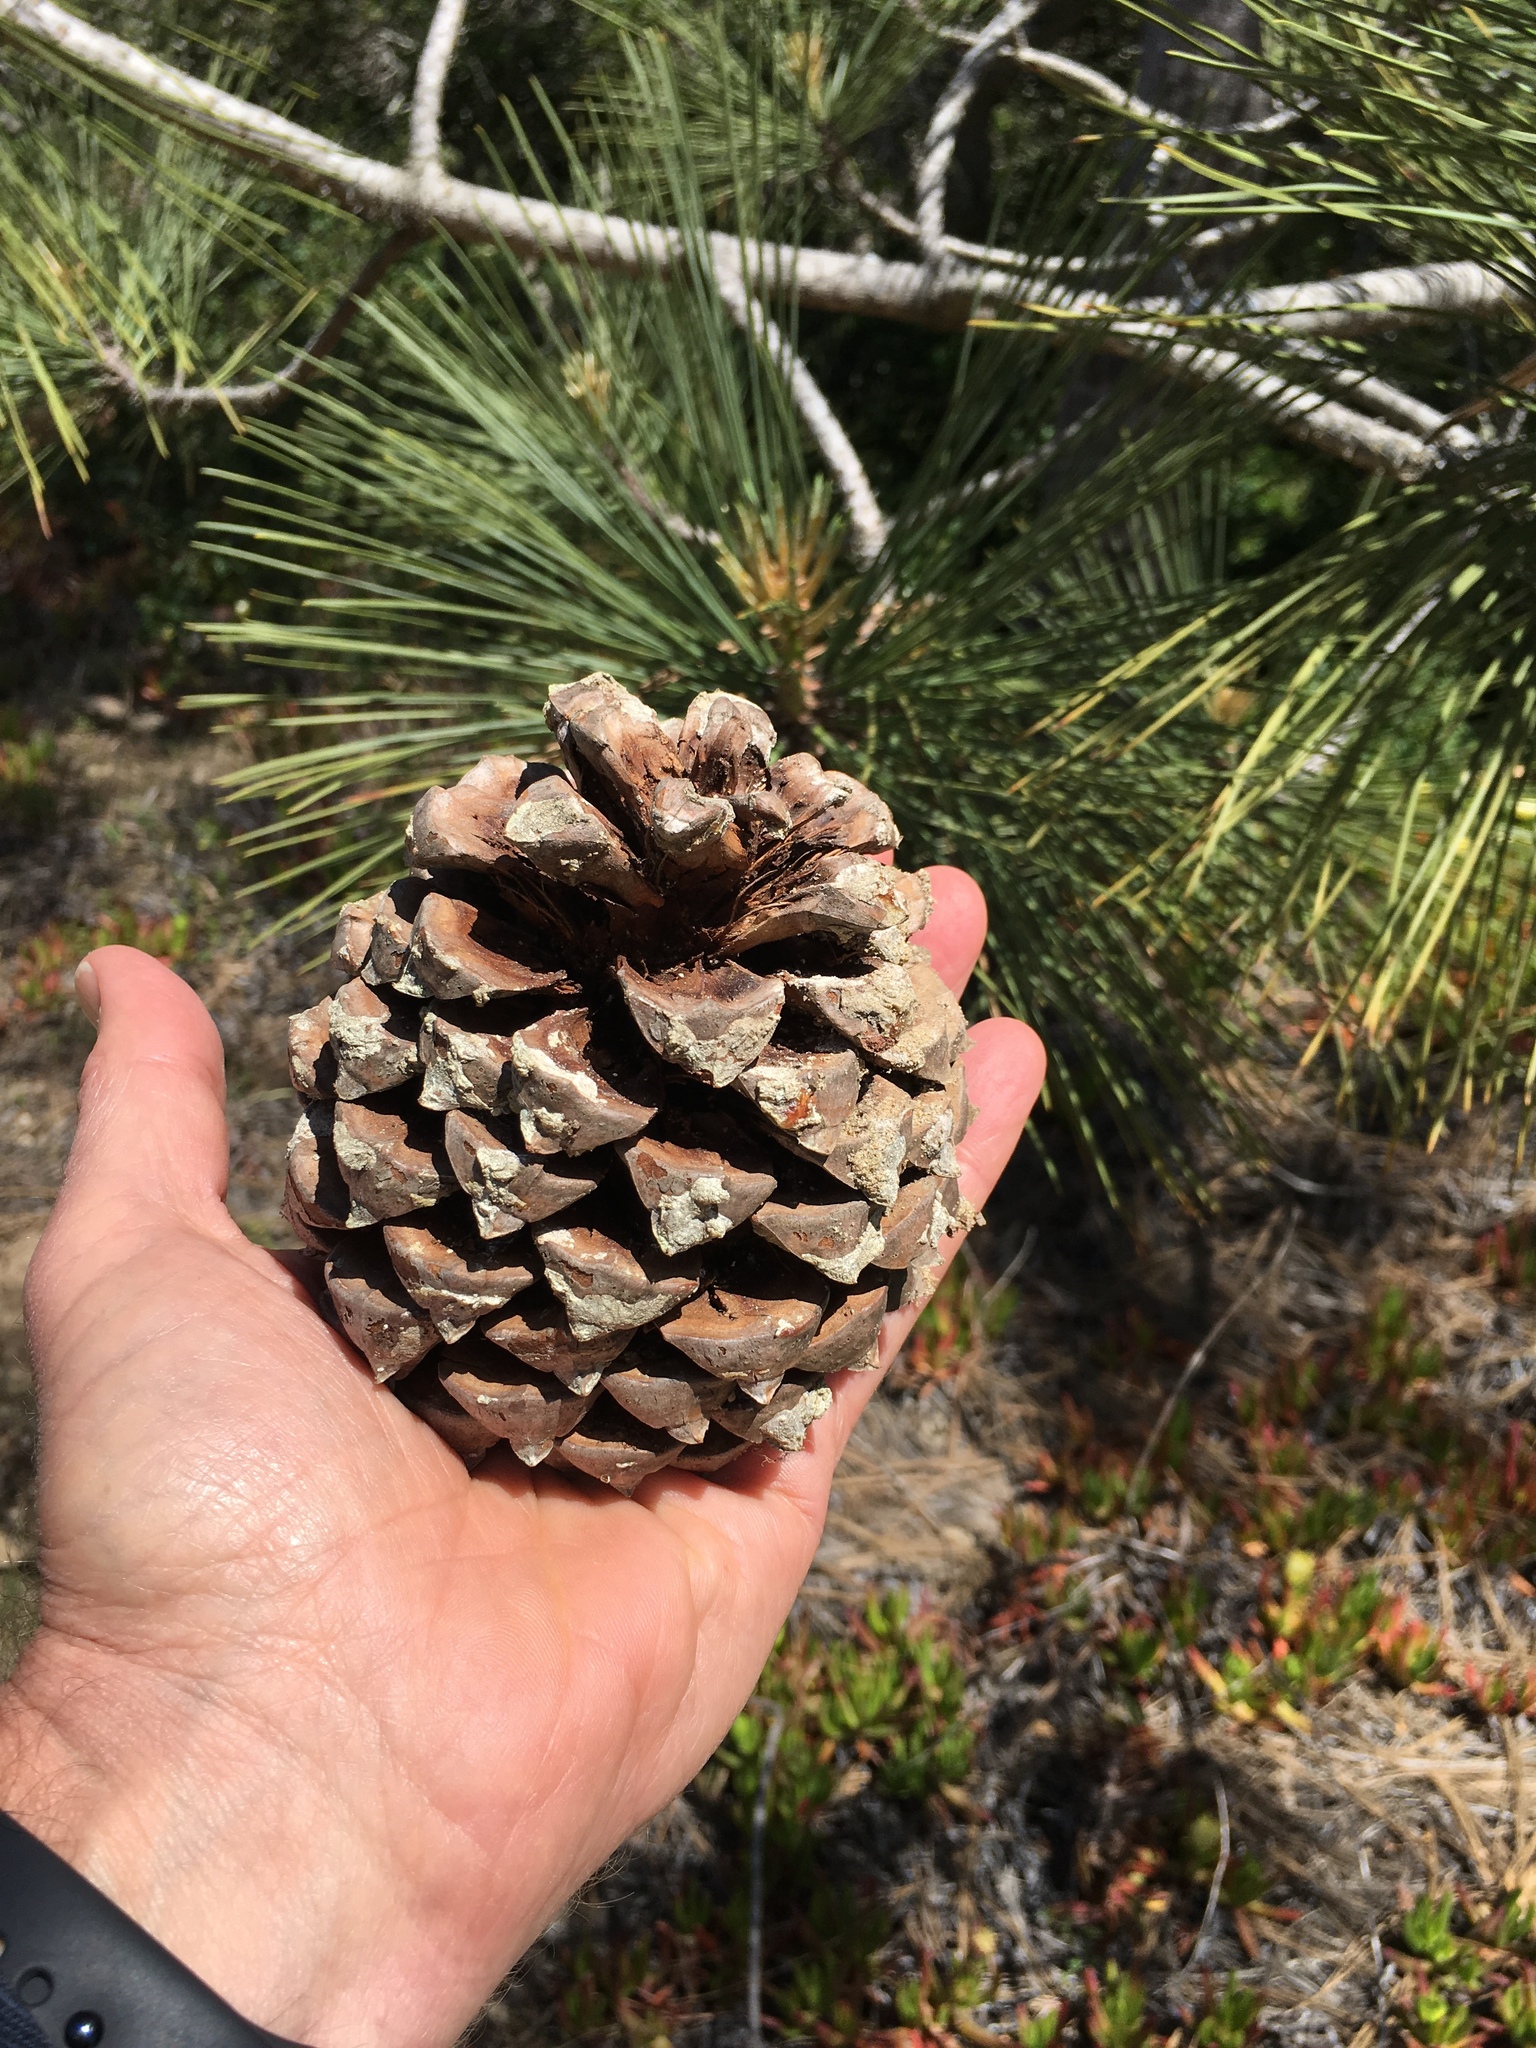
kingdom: Plantae
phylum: Tracheophyta
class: Pinopsida
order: Pinales
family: Pinaceae
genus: Pinus
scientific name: Pinus torreyana
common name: Torrey pine
